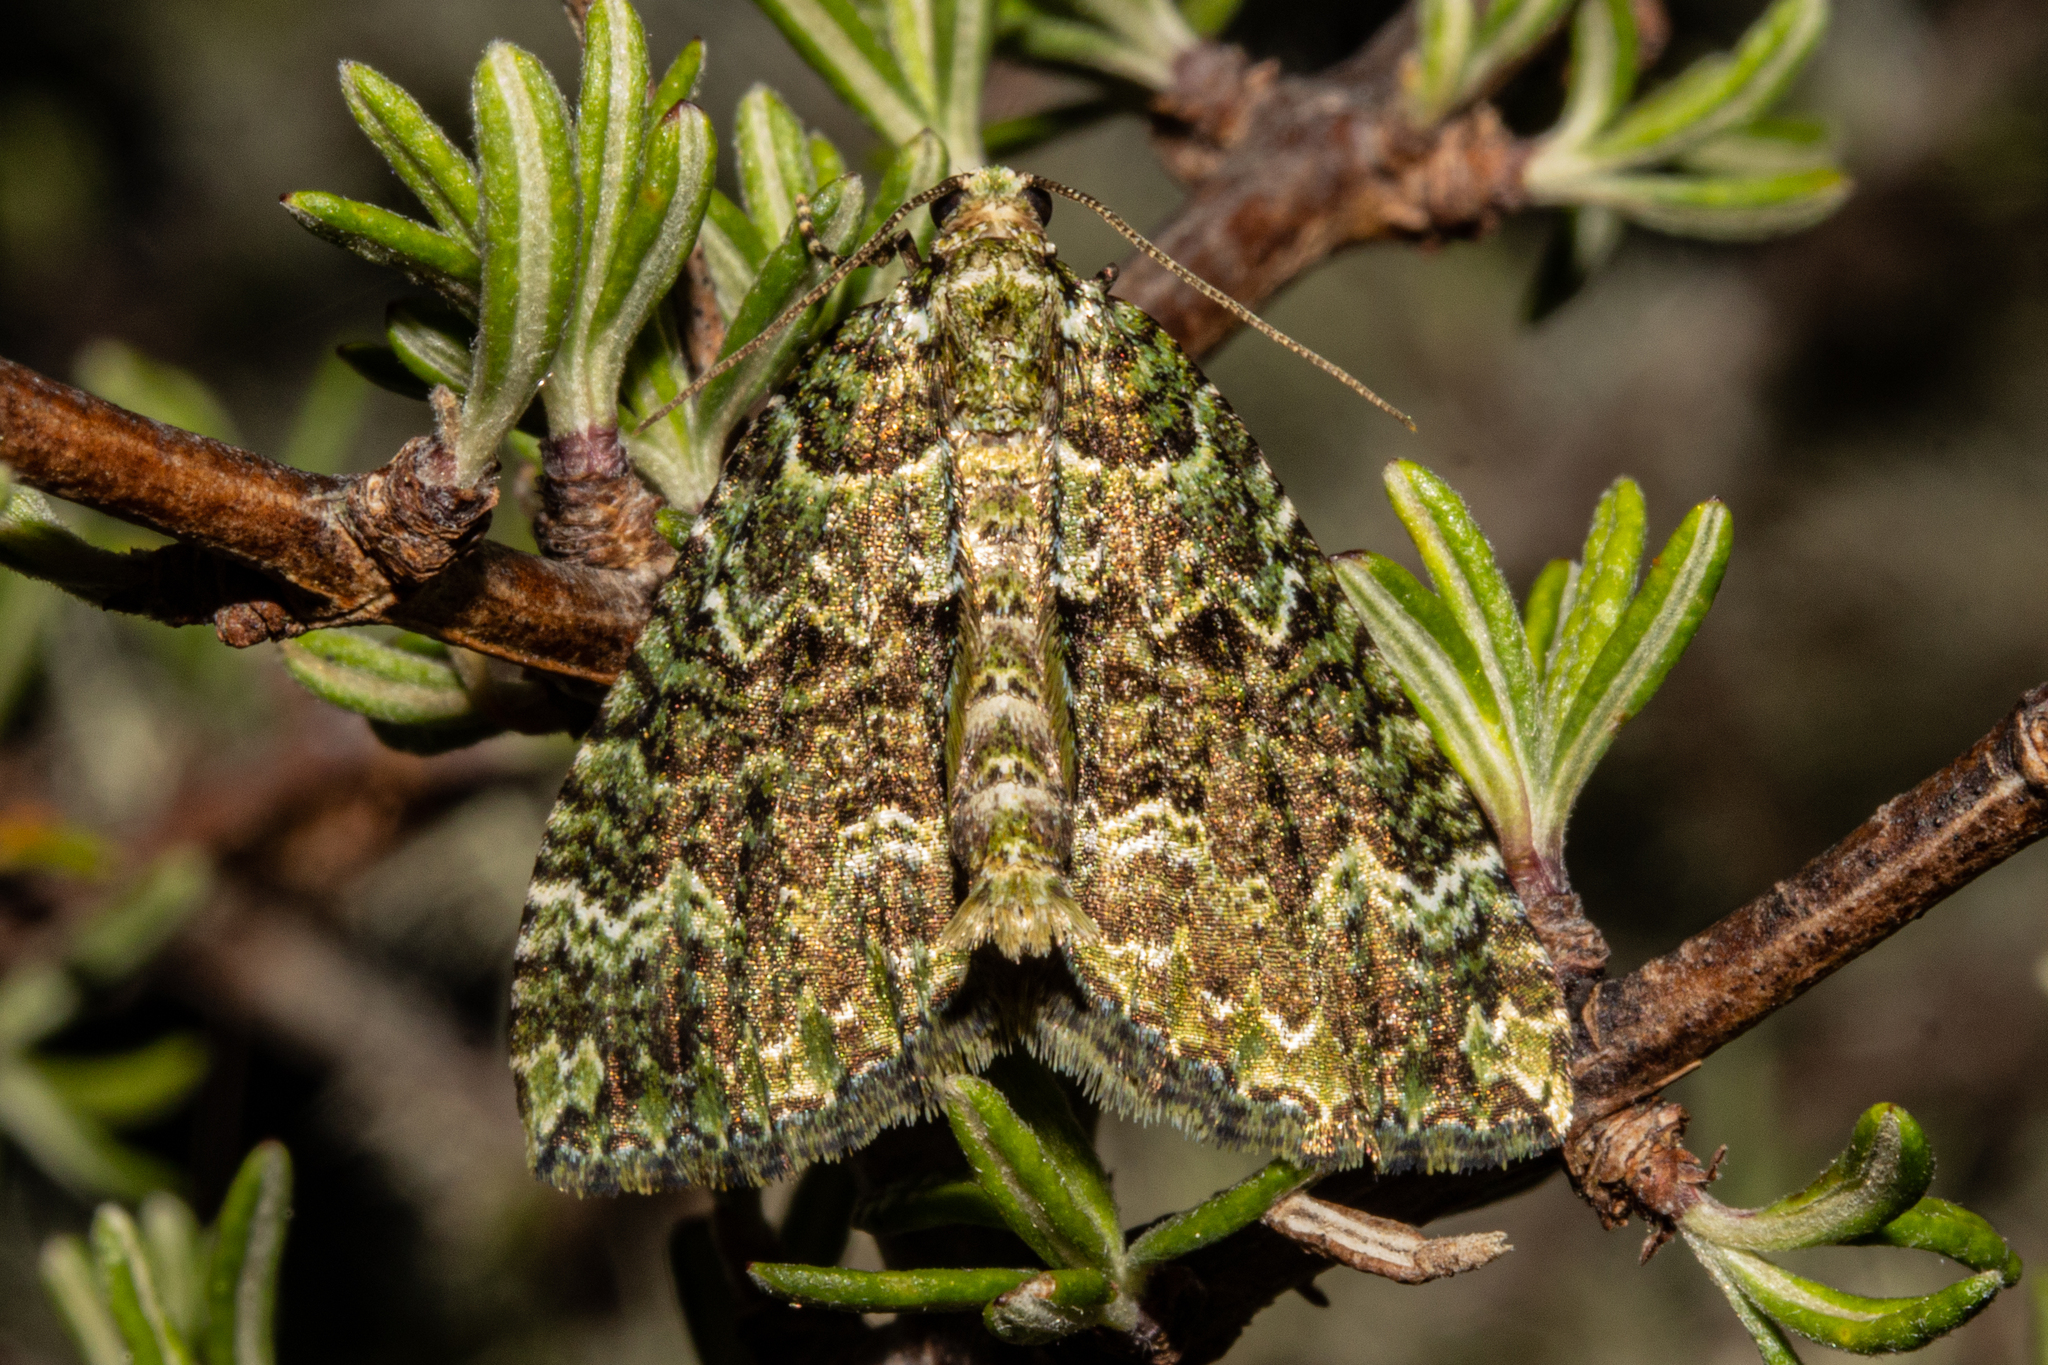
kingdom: Animalia
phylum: Arthropoda
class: Insecta
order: Lepidoptera
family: Geometridae
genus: Austrocidaria
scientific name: Austrocidaria callichlora
